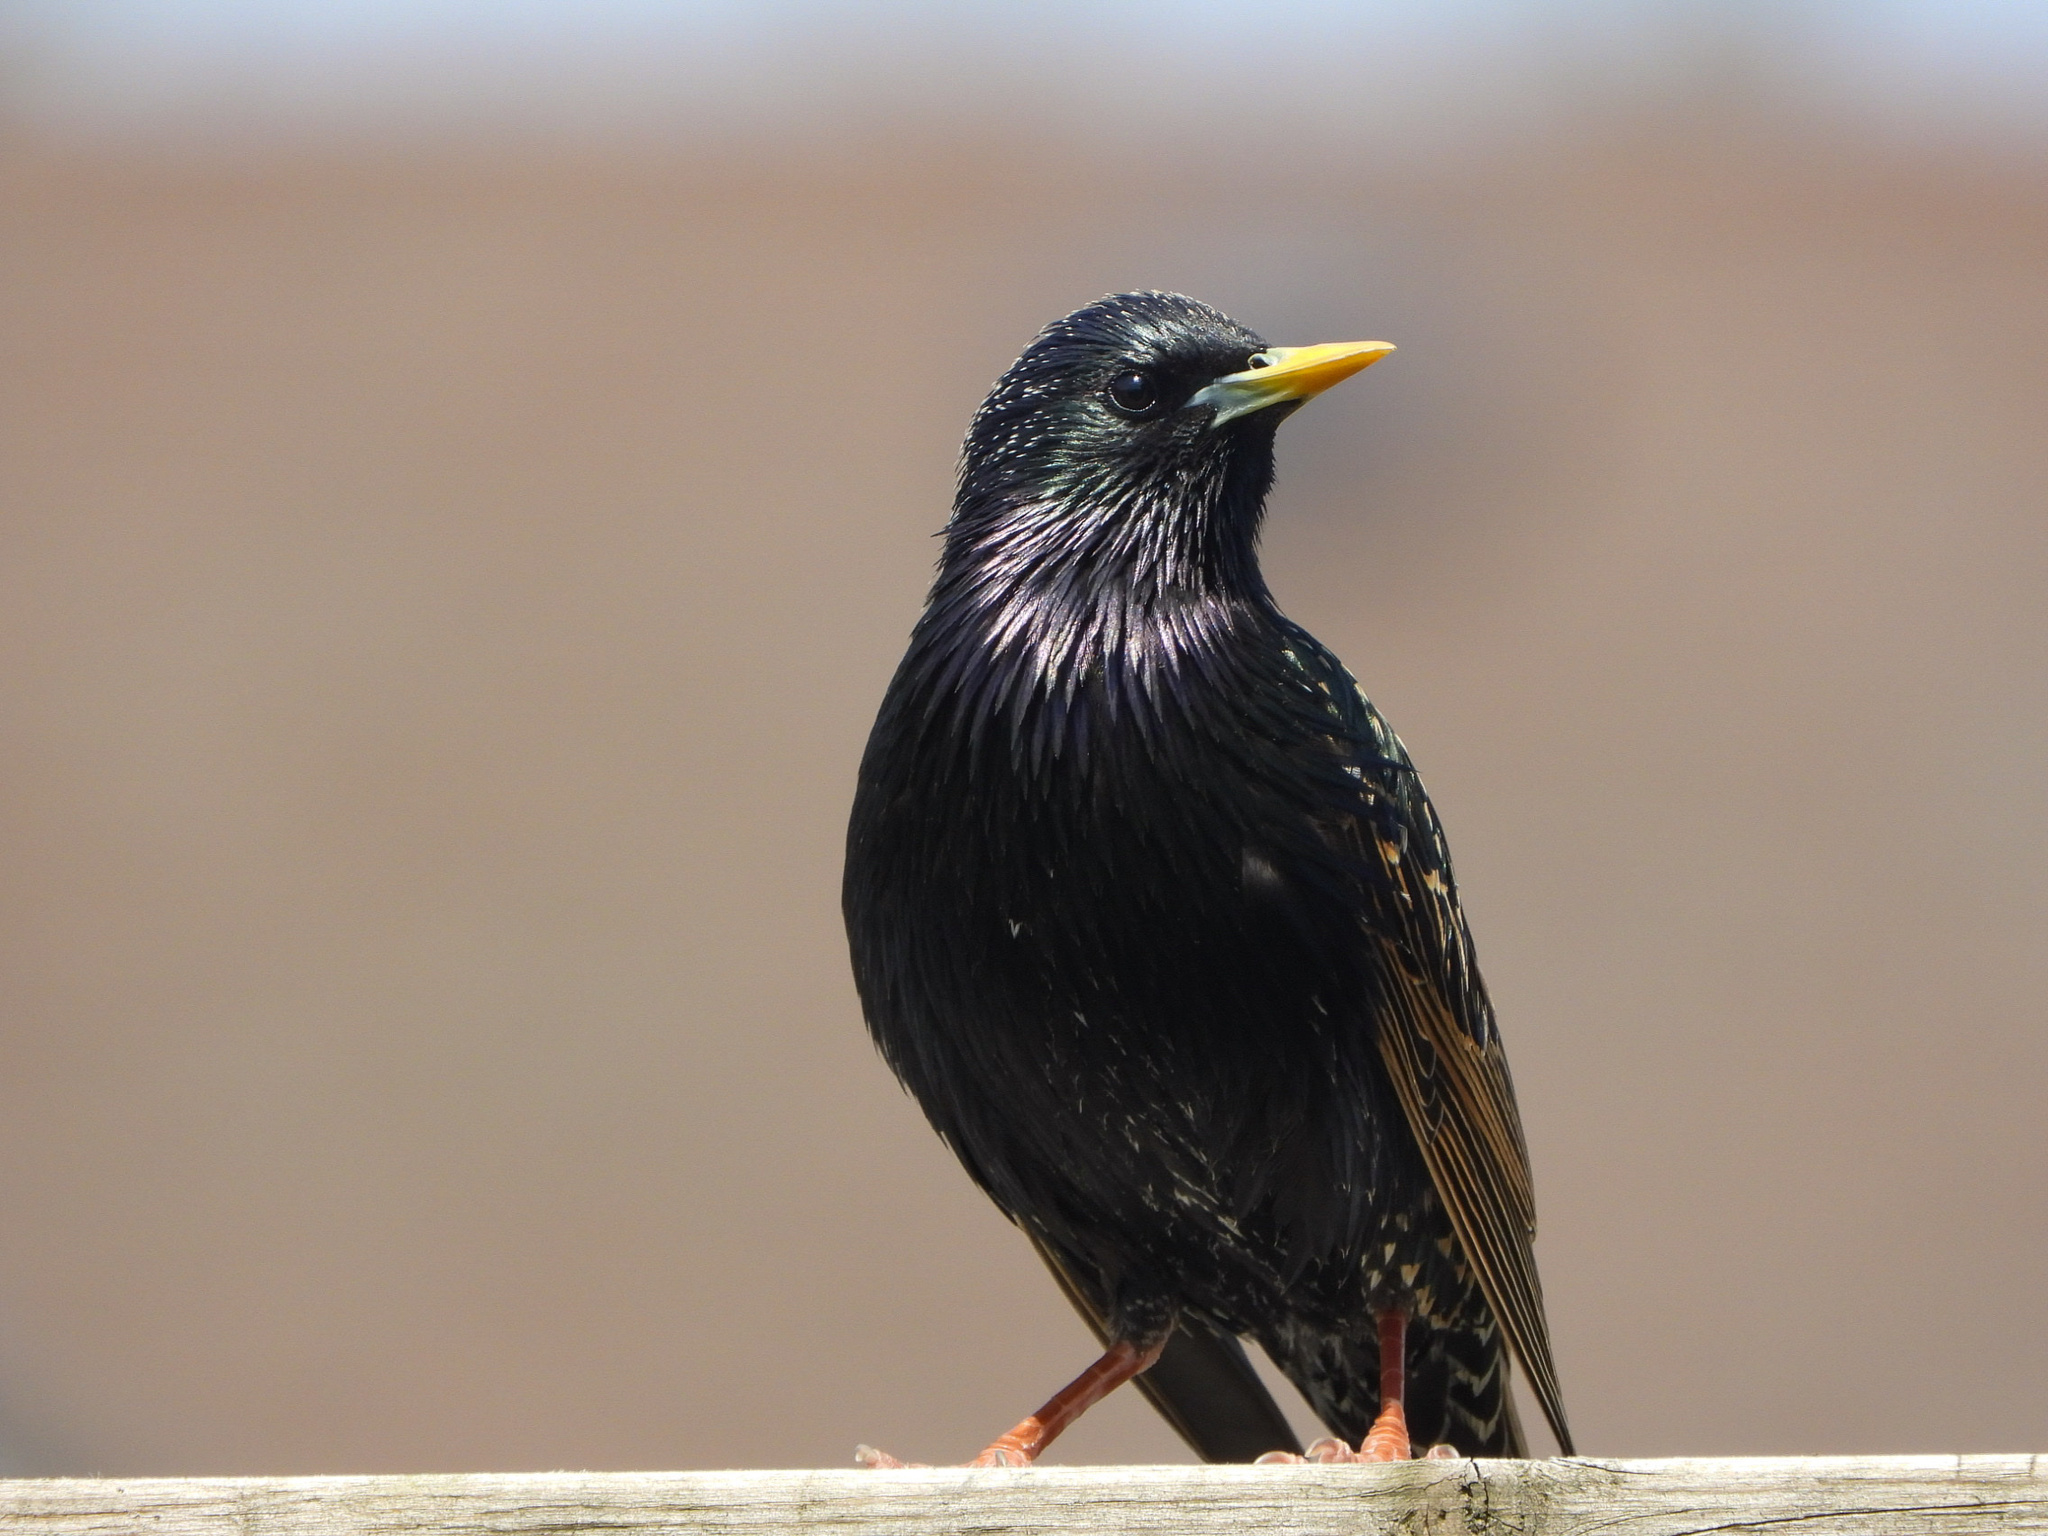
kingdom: Animalia
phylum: Chordata
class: Aves
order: Passeriformes
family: Sturnidae
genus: Sturnus
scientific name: Sturnus vulgaris
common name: Common starling
